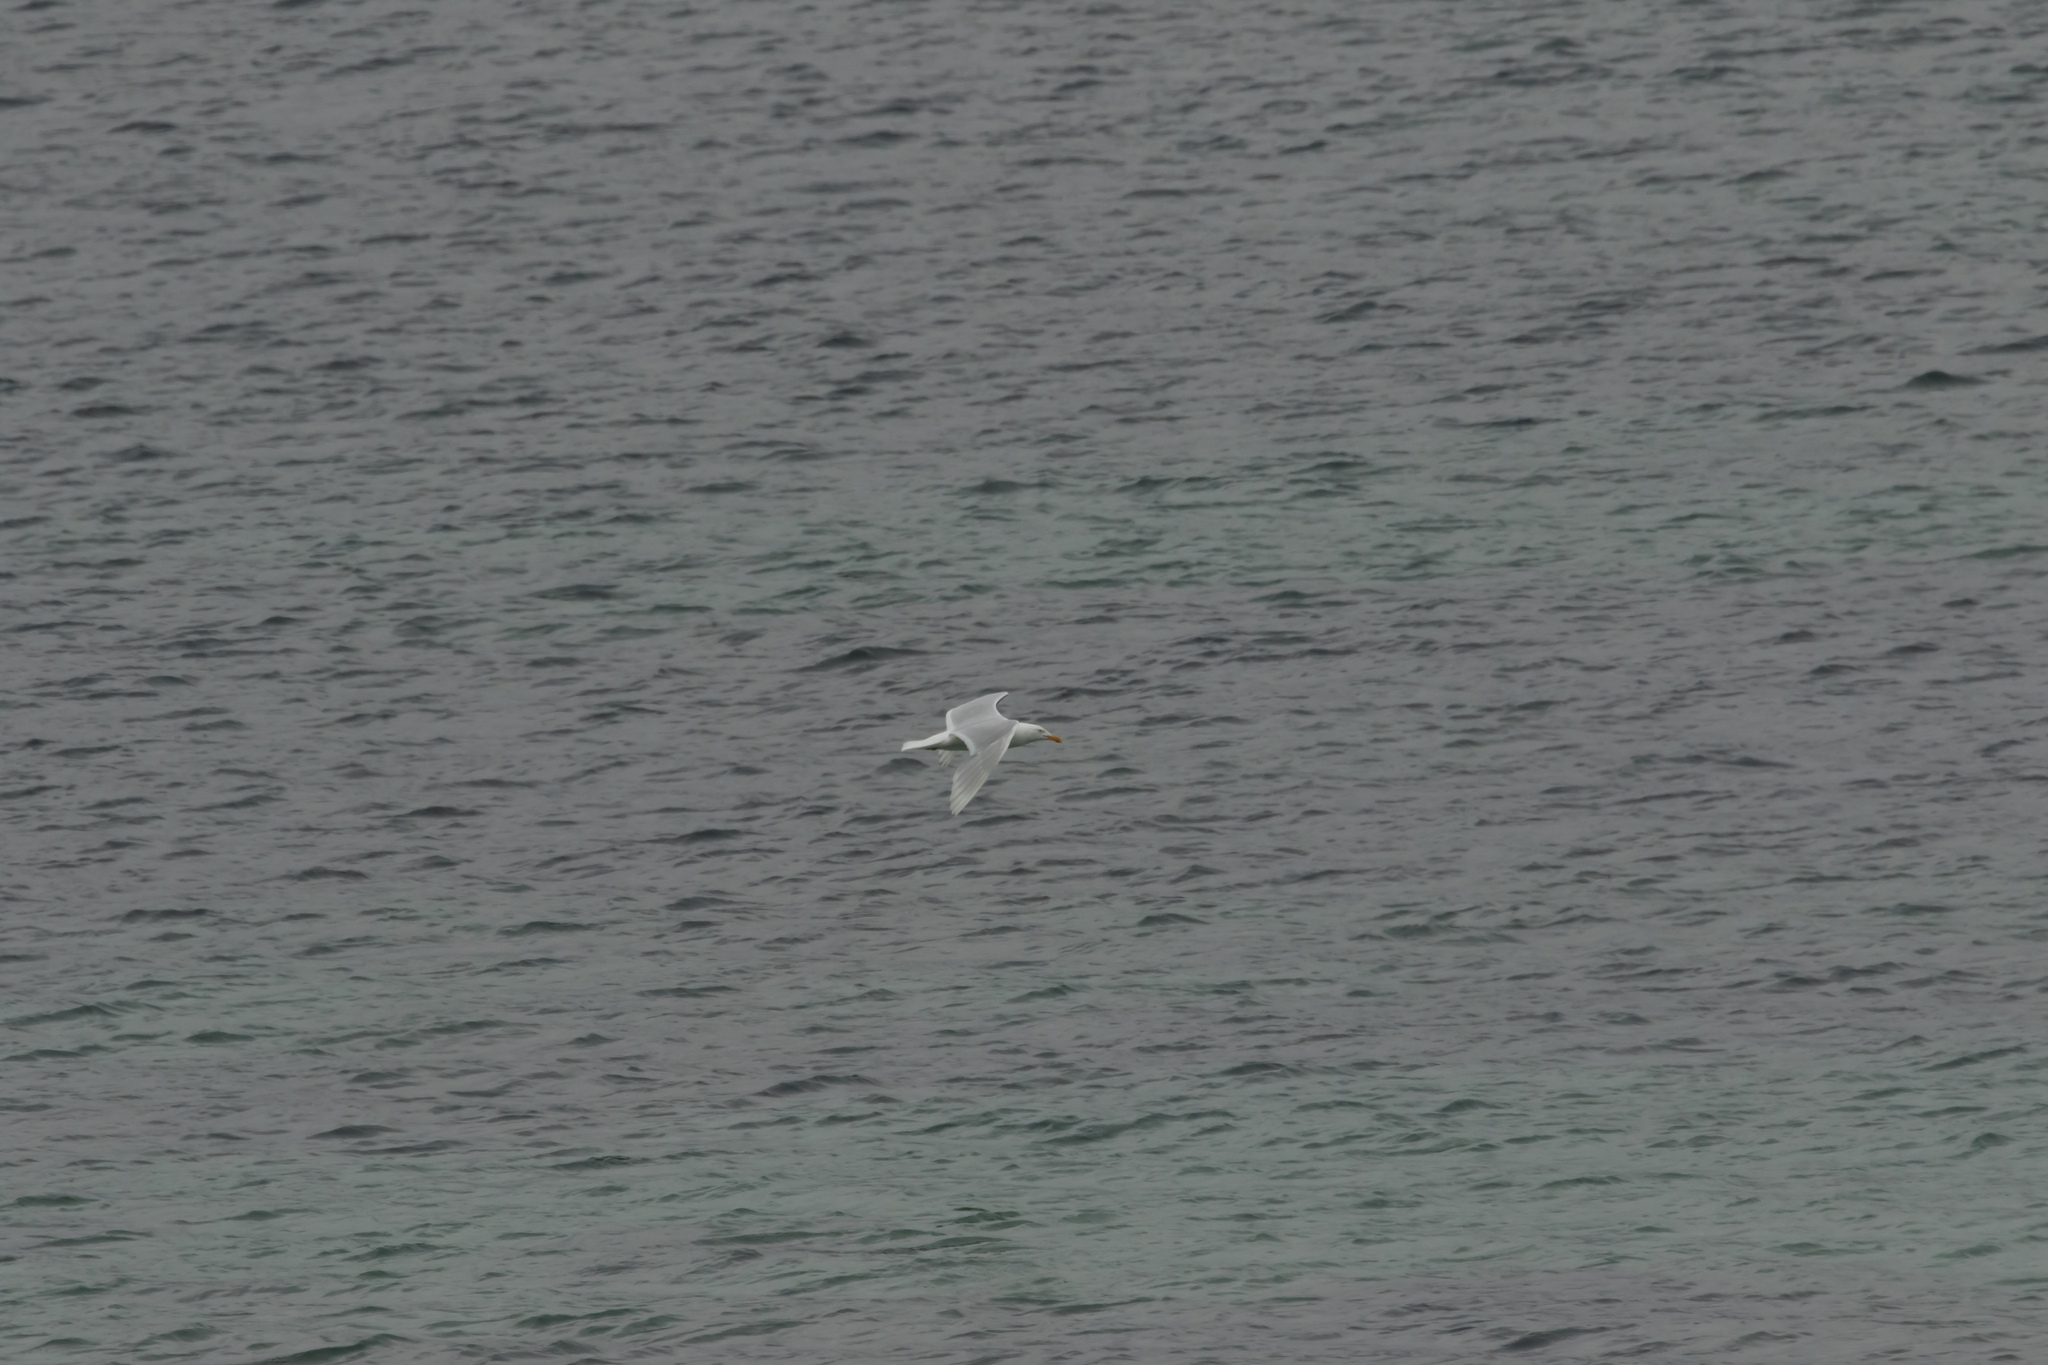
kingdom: Animalia
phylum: Chordata
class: Aves
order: Charadriiformes
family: Laridae
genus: Larus
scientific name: Larus hyperboreus
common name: Glaucous gull
